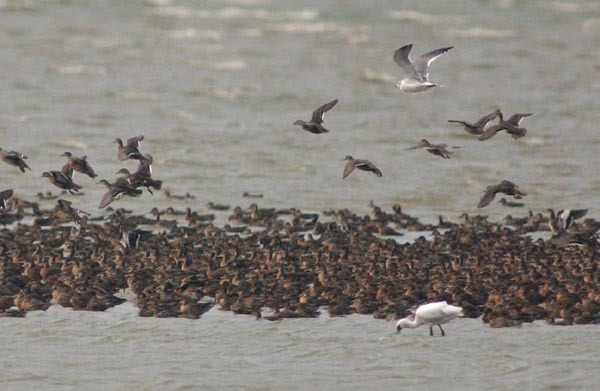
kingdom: Animalia
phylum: Chordata
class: Aves
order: Pelecaniformes
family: Threskiornithidae
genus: Platalea
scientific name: Platalea minor
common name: Black-faced spoonbill
